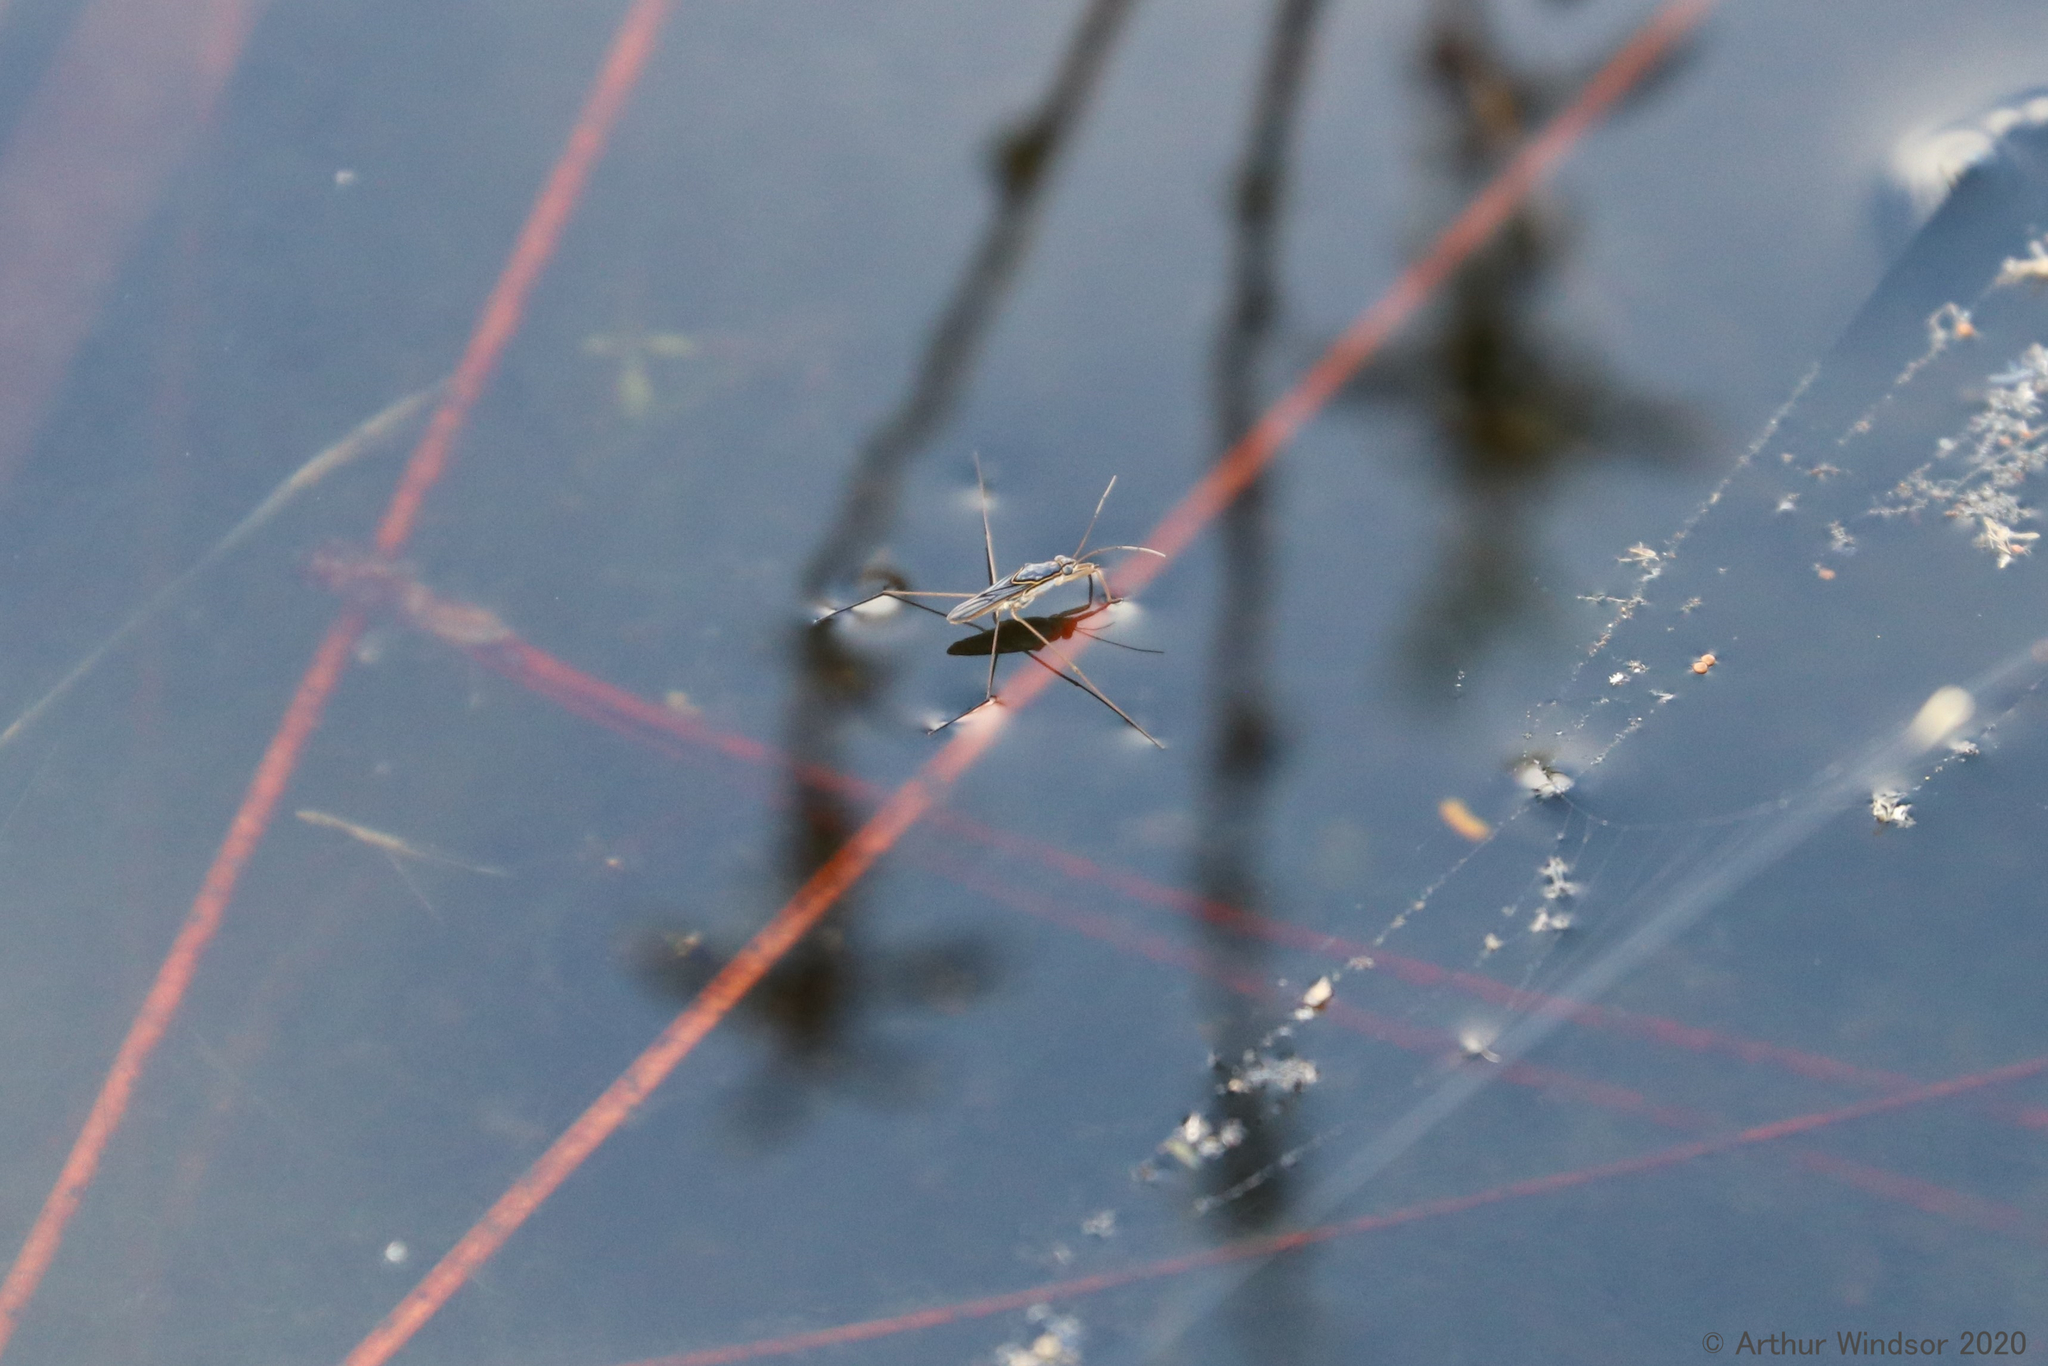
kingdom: Animalia
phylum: Arthropoda
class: Insecta
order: Hemiptera
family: Gerridae
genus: Limnogonus
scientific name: Limnogonus
